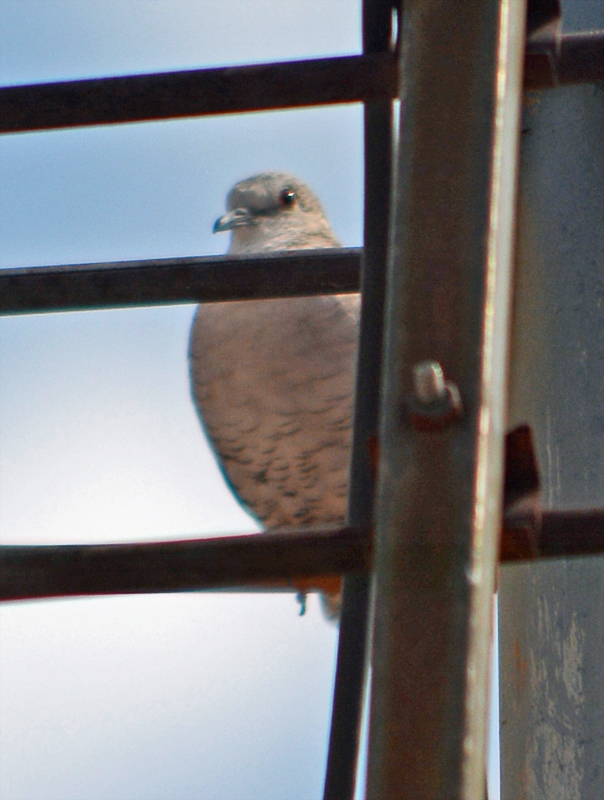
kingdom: Animalia
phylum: Chordata
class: Aves
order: Columbiformes
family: Columbidae
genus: Columbina
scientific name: Columbina inca
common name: Inca dove
